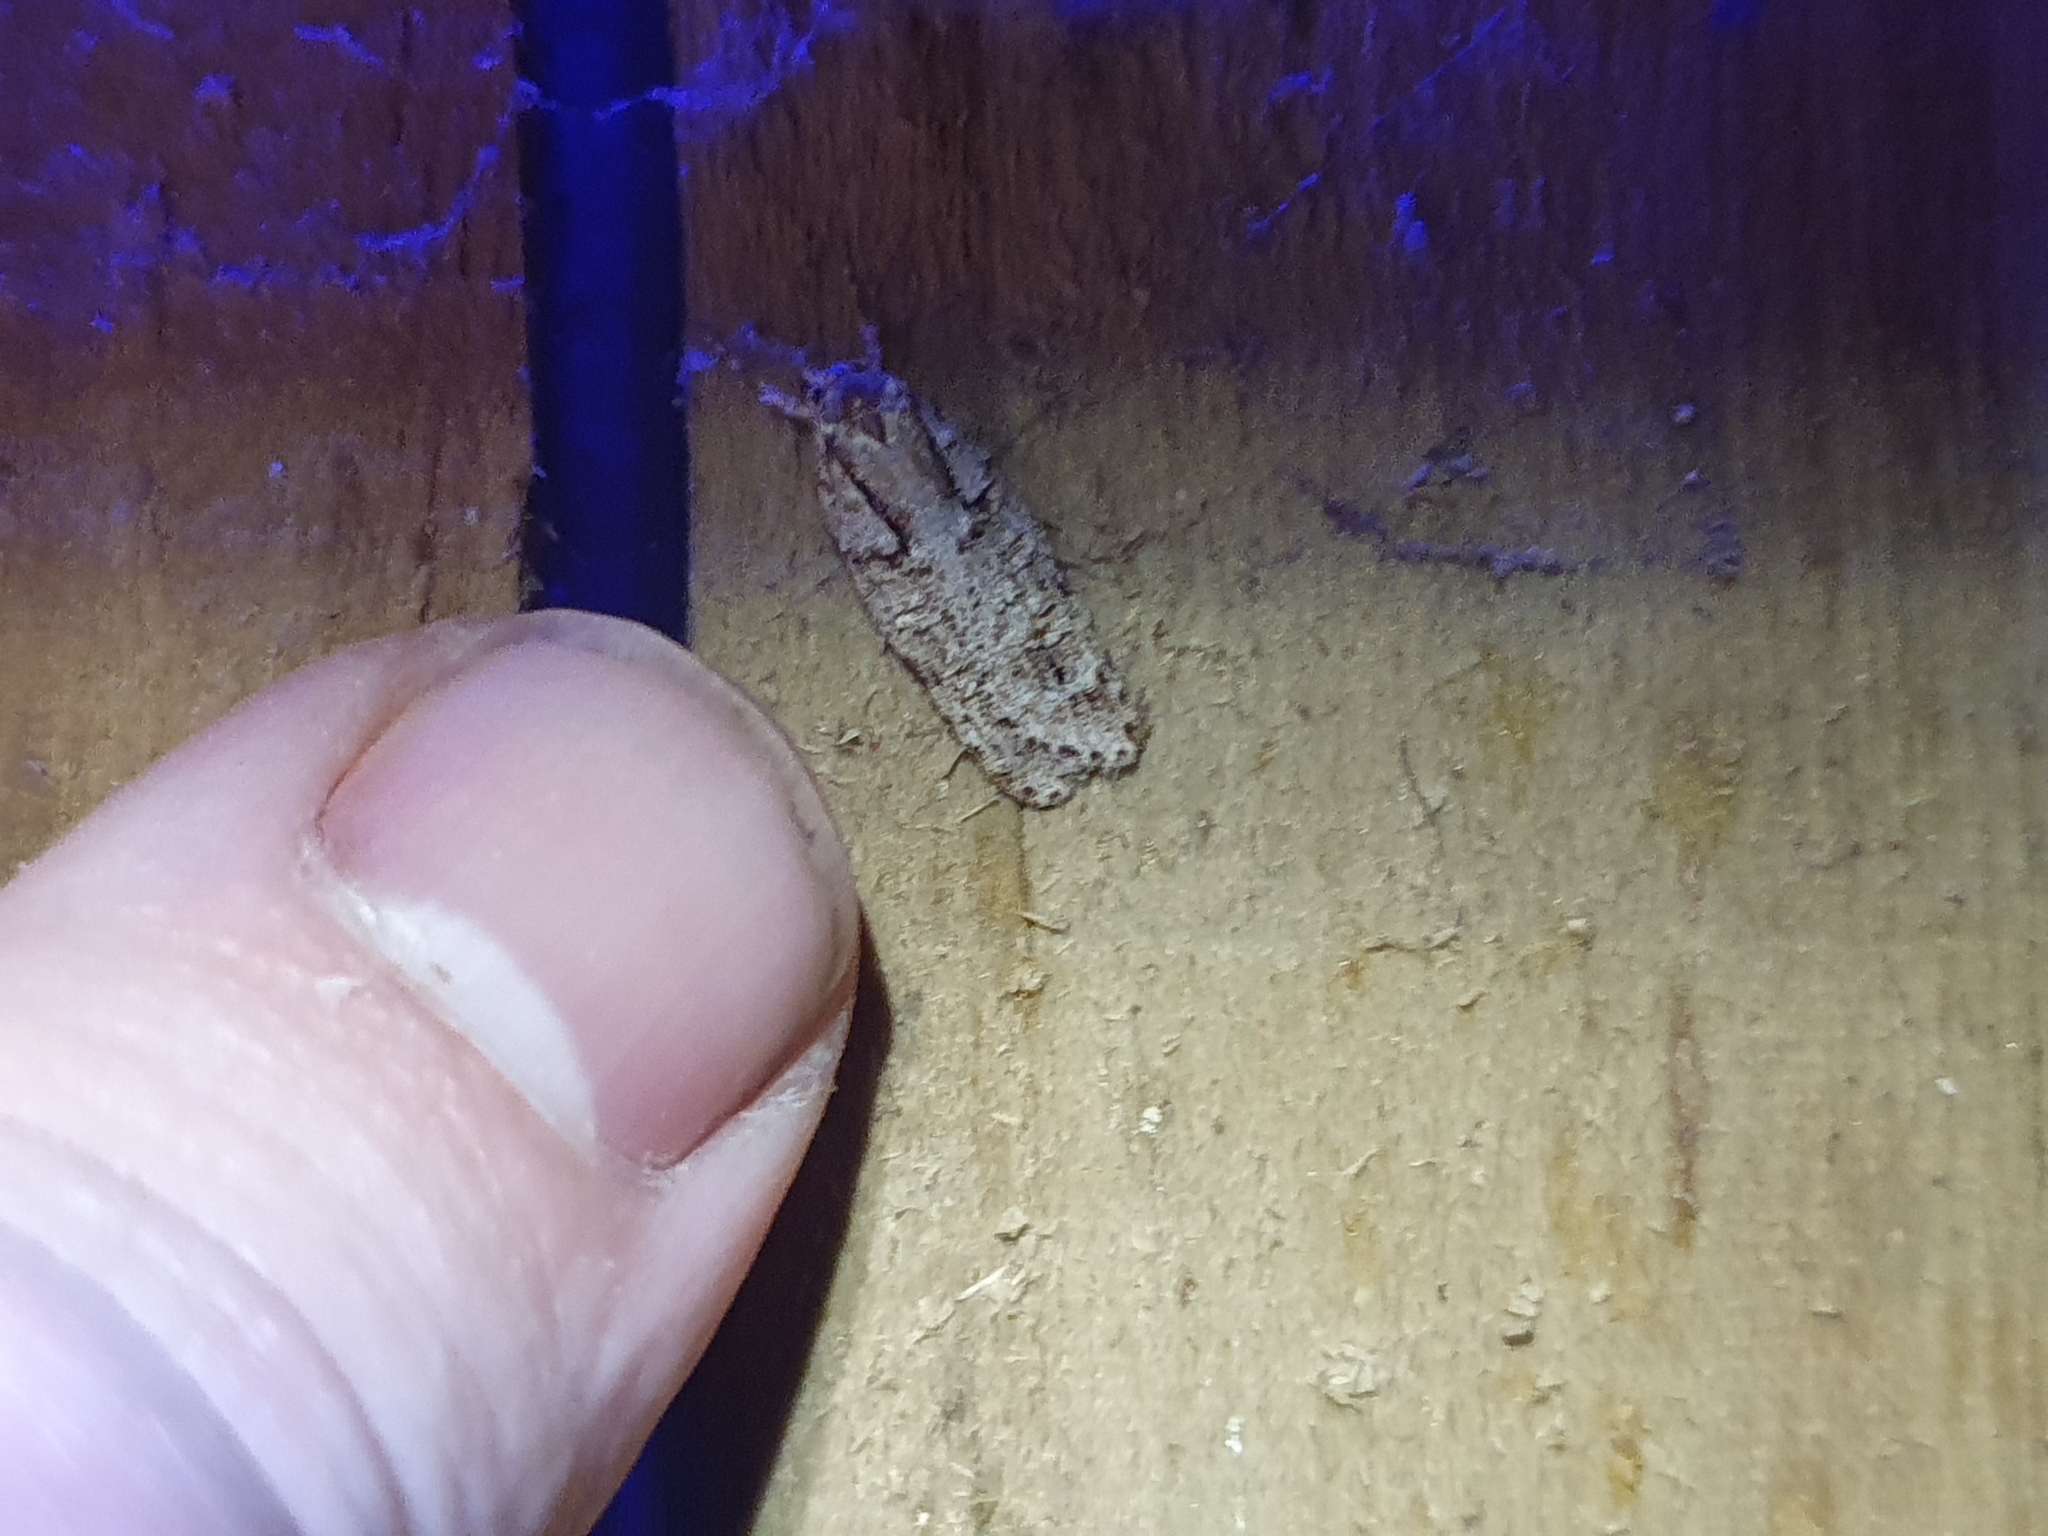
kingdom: Animalia
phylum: Arthropoda
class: Insecta
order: Lepidoptera
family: Oecophoridae
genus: Izatha
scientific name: Izatha attactella
